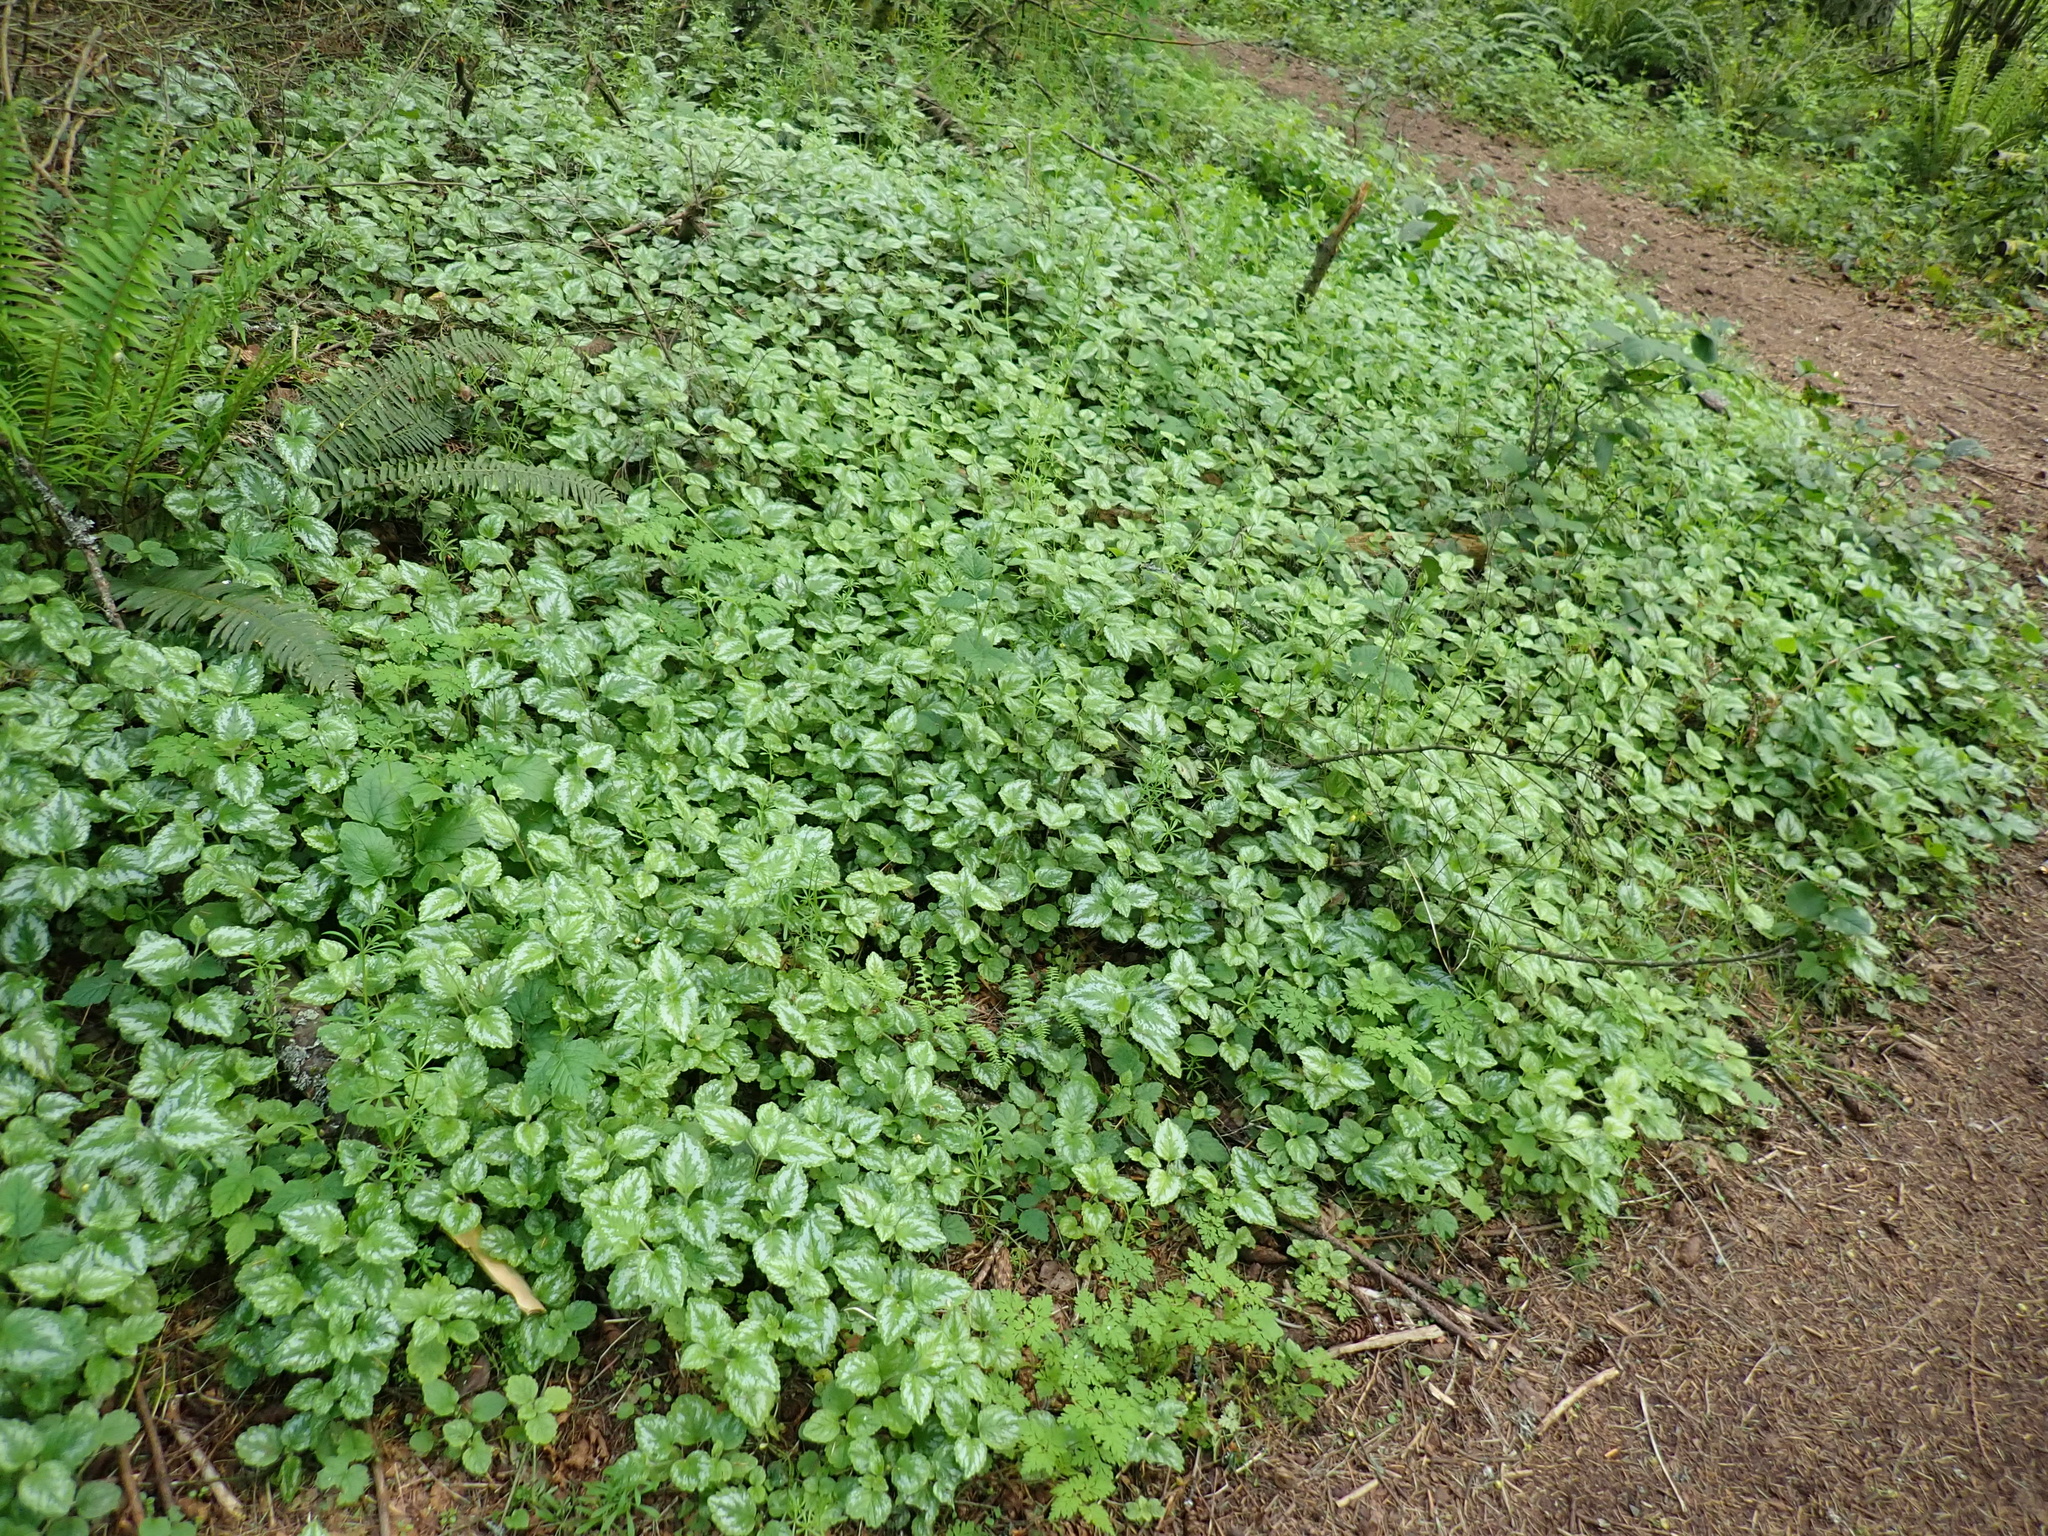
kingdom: Plantae
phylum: Tracheophyta
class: Magnoliopsida
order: Lamiales
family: Lamiaceae
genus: Lamium
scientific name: Lamium galeobdolon
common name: Yellow archangel
